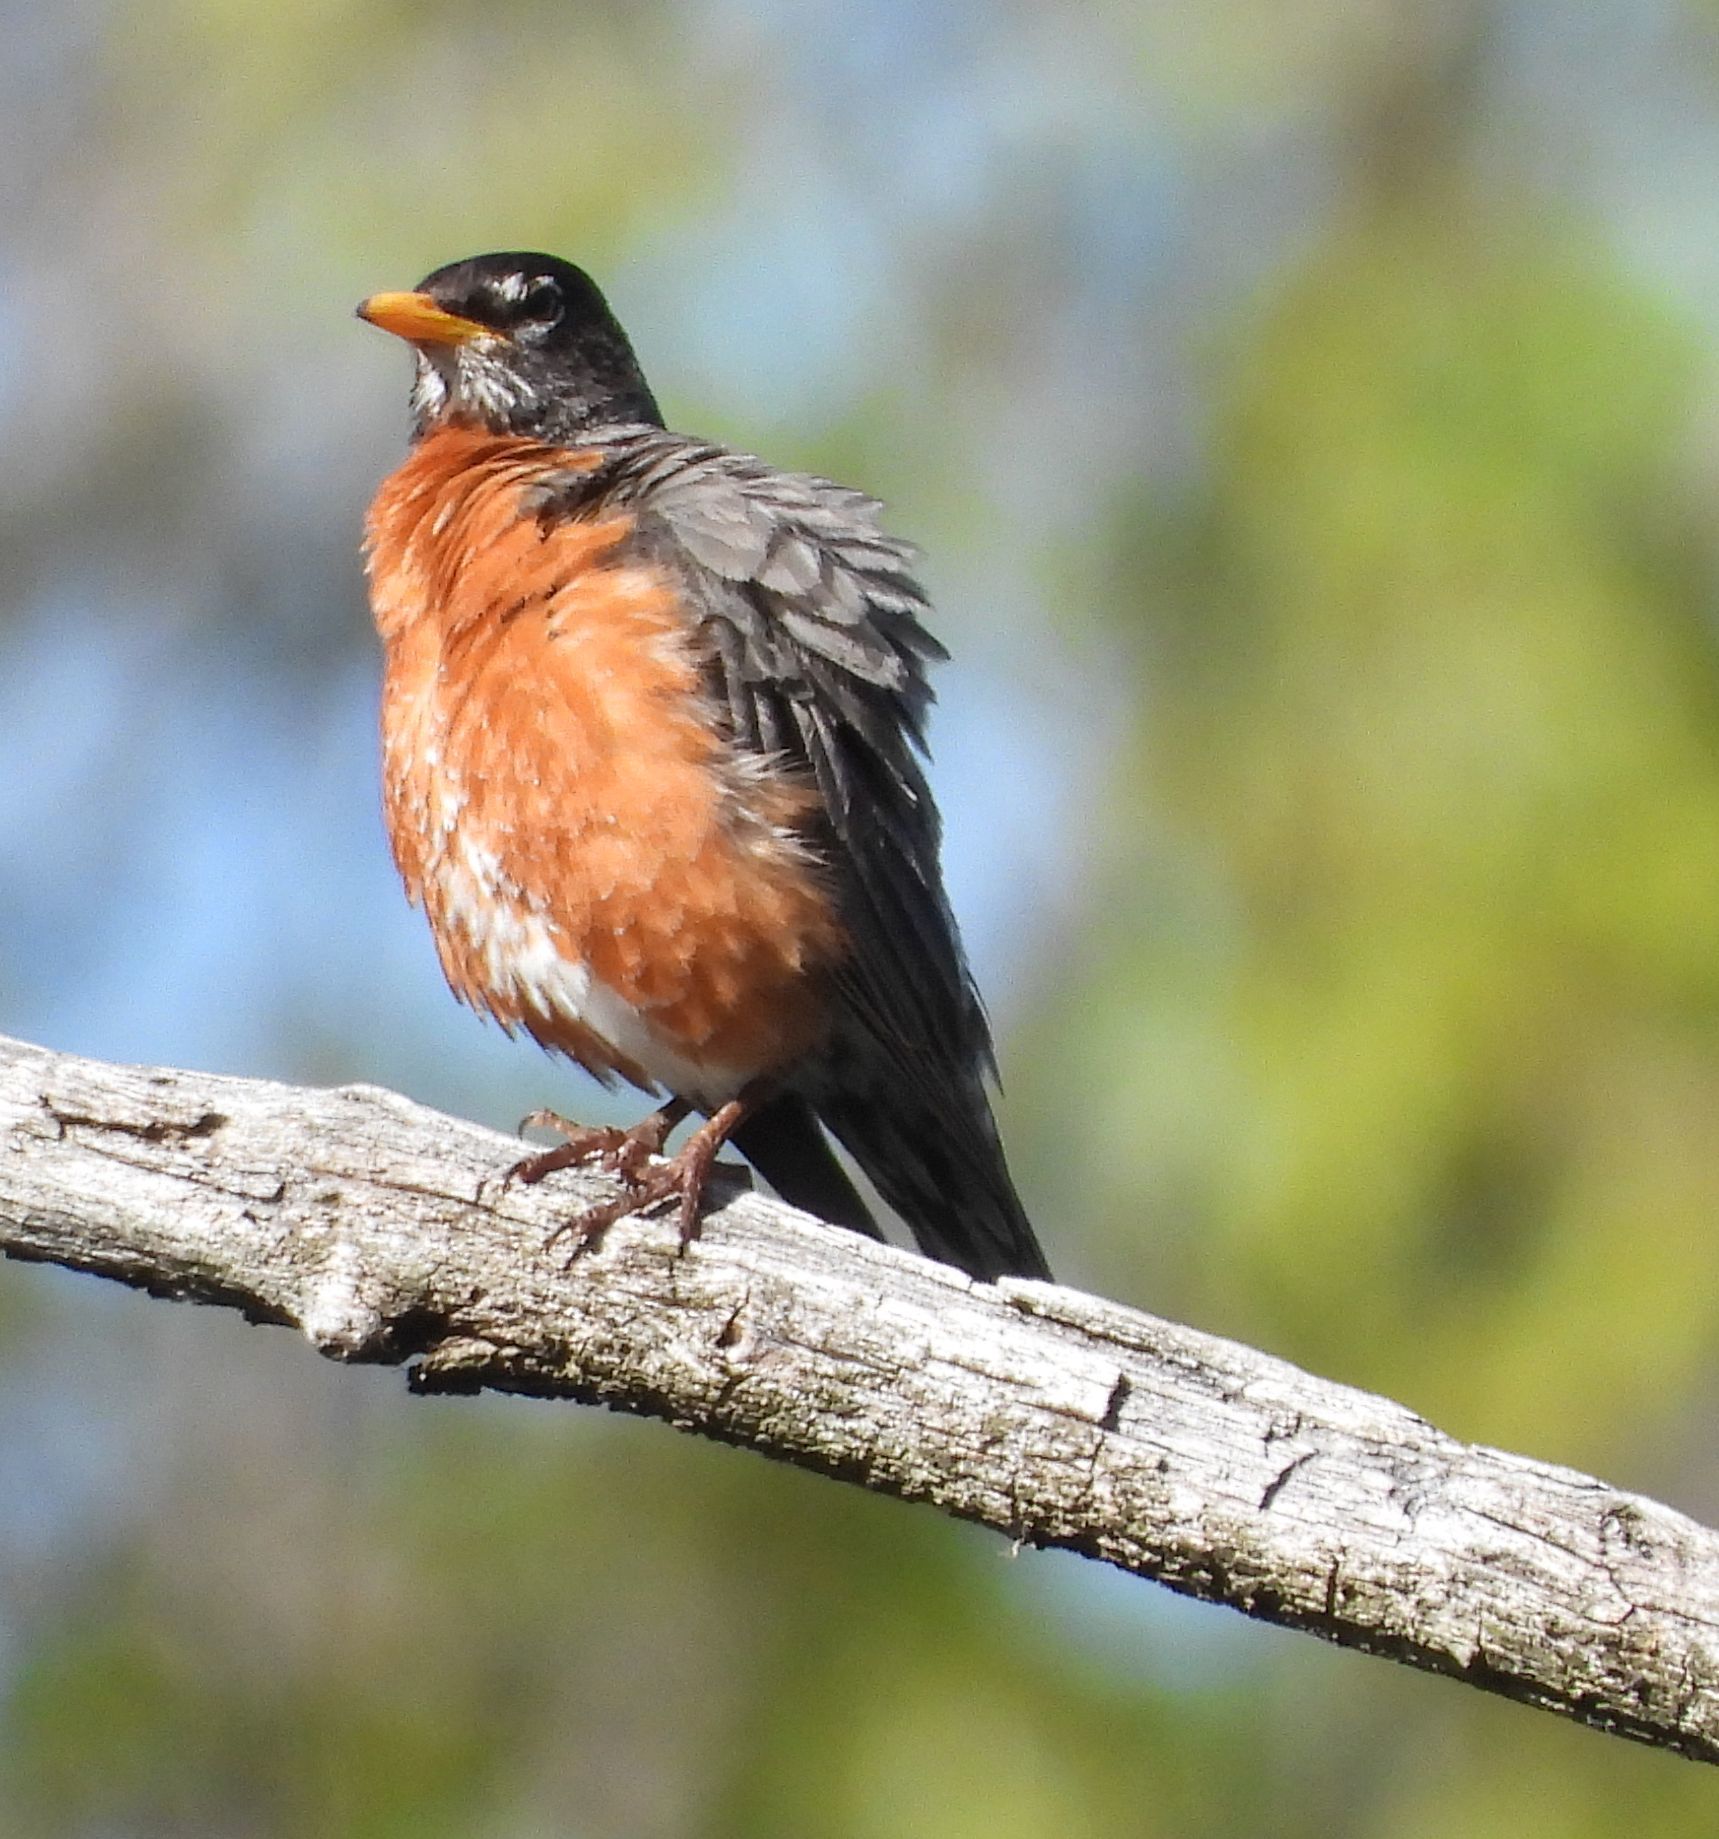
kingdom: Animalia
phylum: Chordata
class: Aves
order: Passeriformes
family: Turdidae
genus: Turdus
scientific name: Turdus migratorius
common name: American robin
